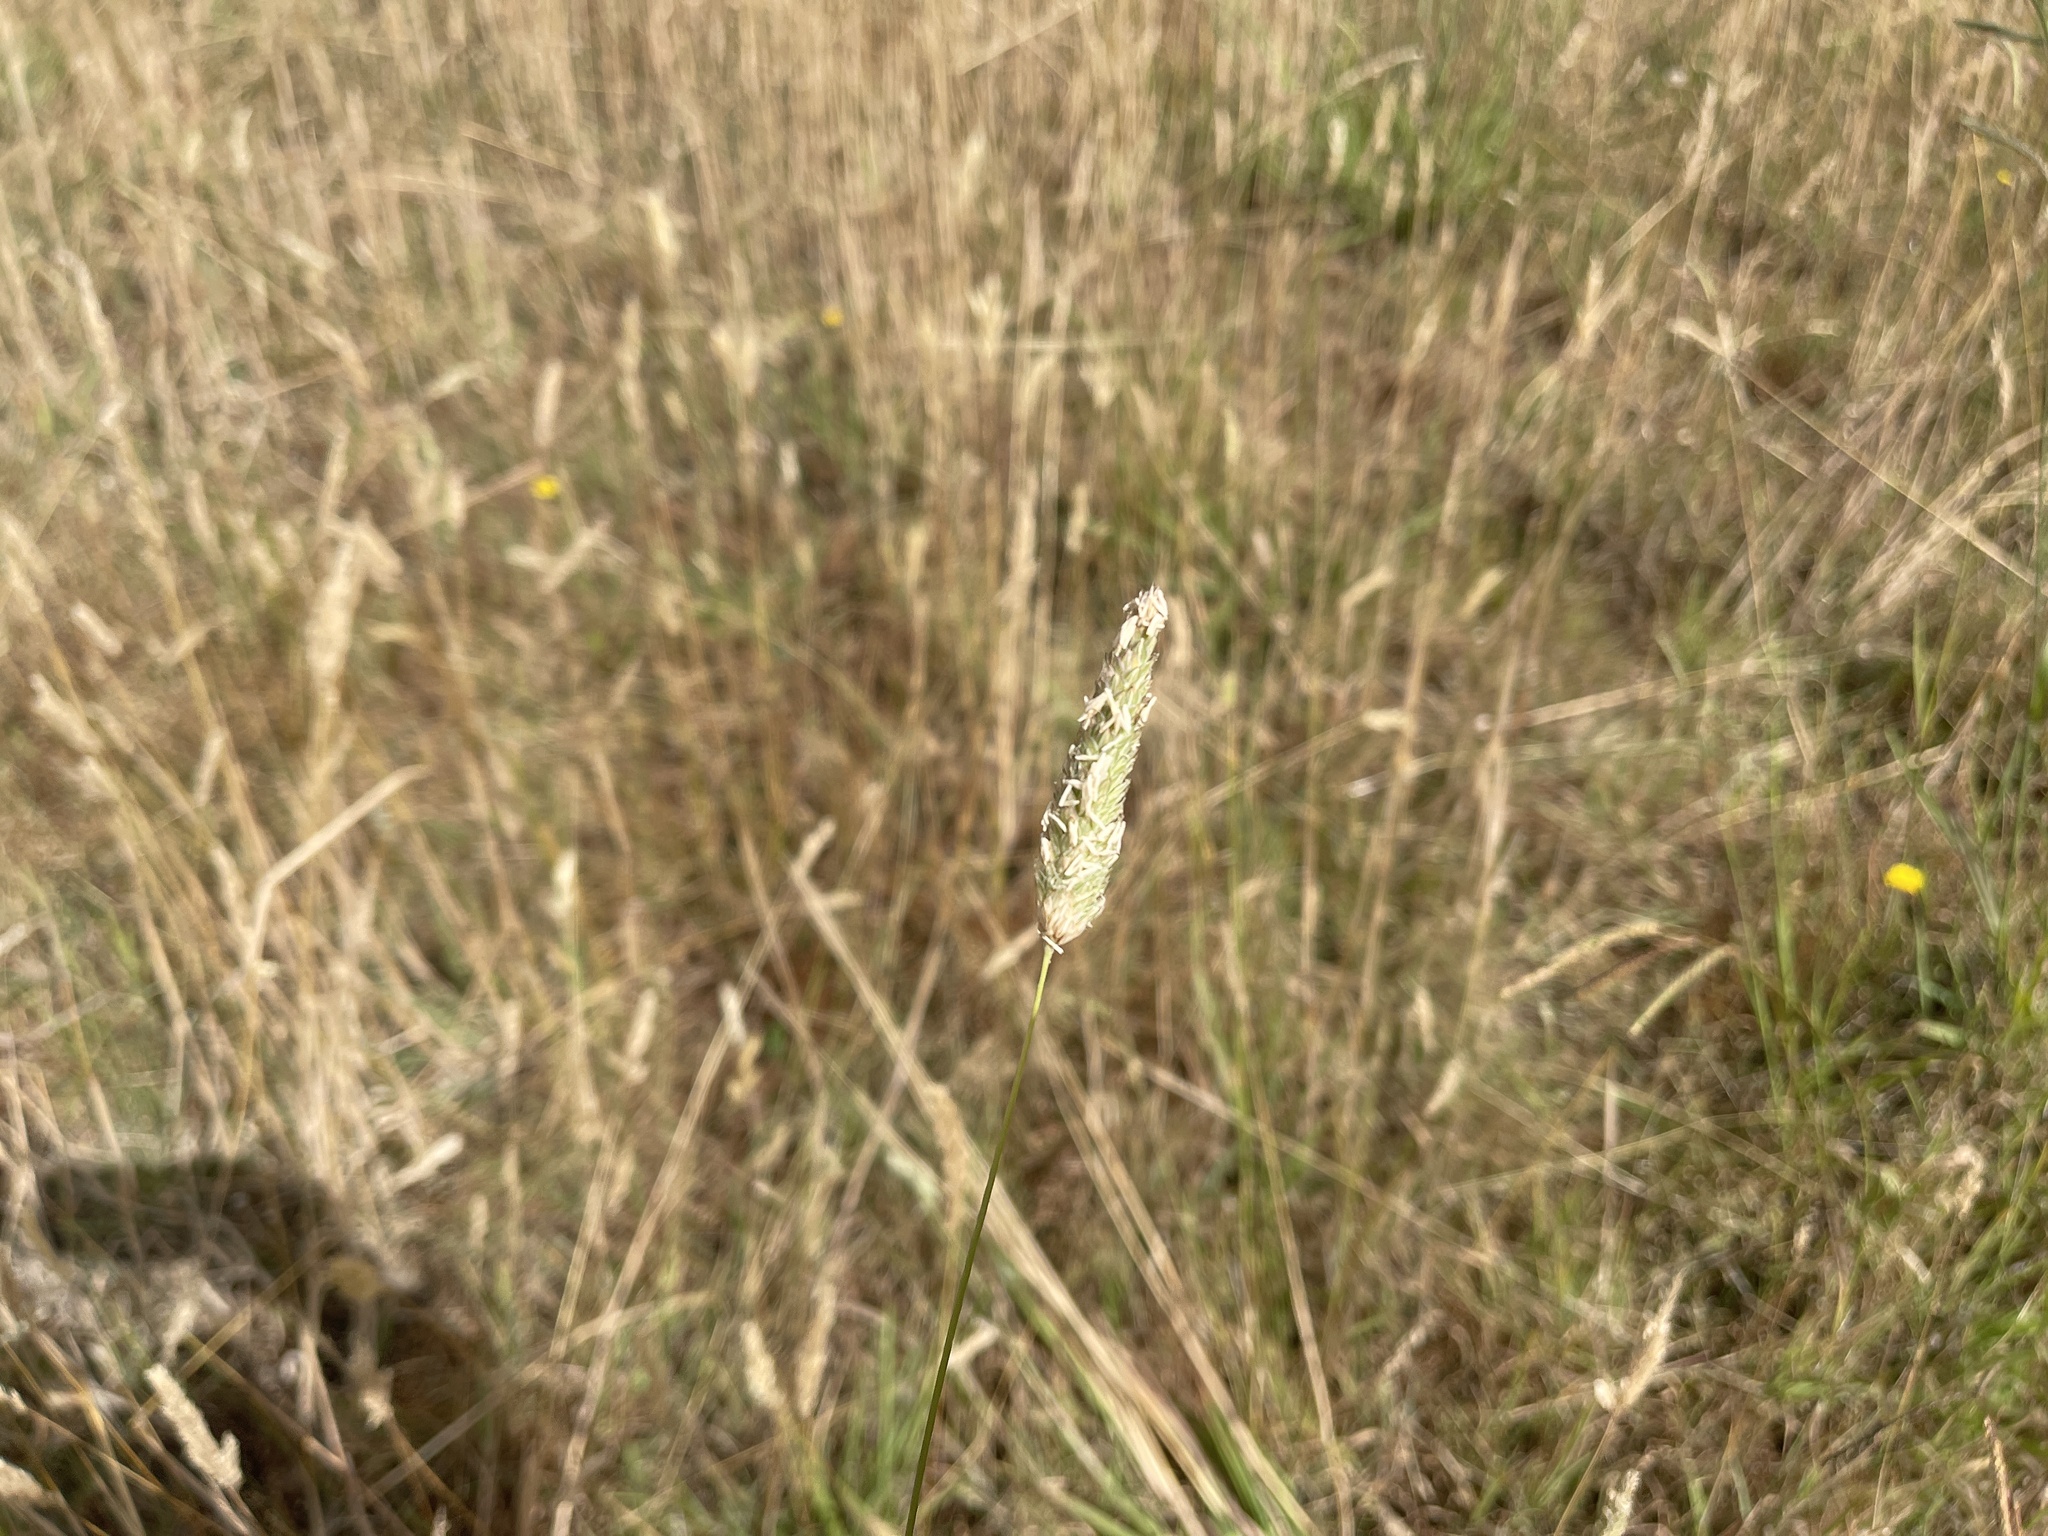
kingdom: Plantae
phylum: Tracheophyta
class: Liliopsida
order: Poales
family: Poaceae
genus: Phalaris
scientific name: Phalaris aquatica
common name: Bulbous canary-grass
